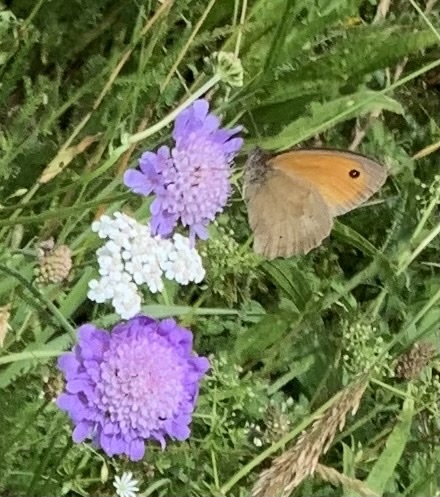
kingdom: Animalia
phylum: Arthropoda
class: Insecta
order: Lepidoptera
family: Nymphalidae
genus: Maniola
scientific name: Maniola jurtina
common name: Meadow brown
